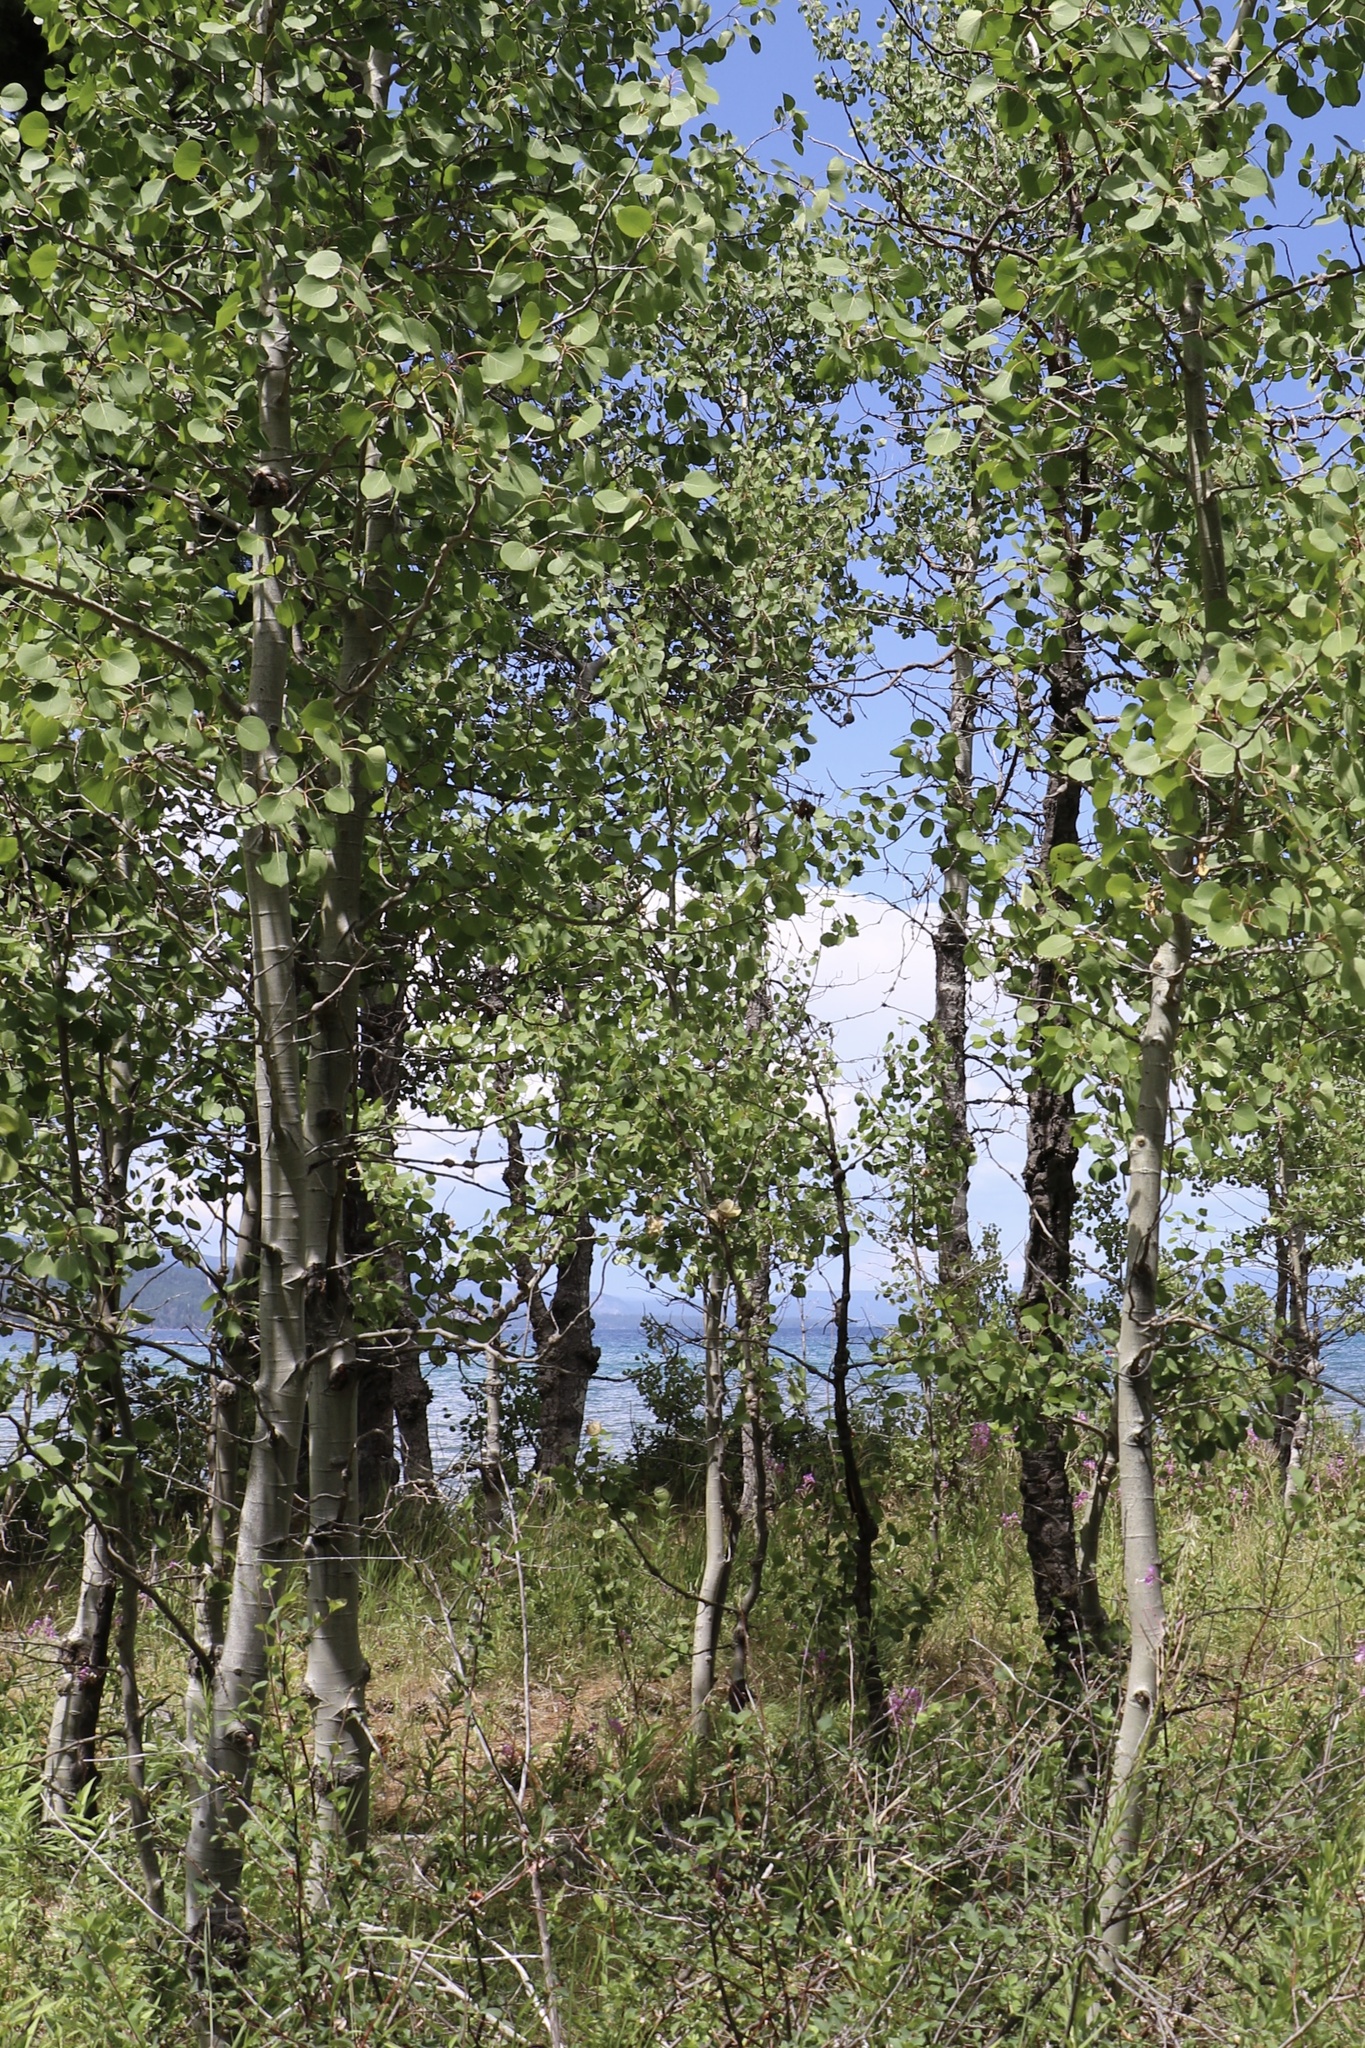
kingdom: Plantae
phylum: Tracheophyta
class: Magnoliopsida
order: Malpighiales
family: Salicaceae
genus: Populus
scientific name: Populus tremuloides
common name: Quaking aspen
